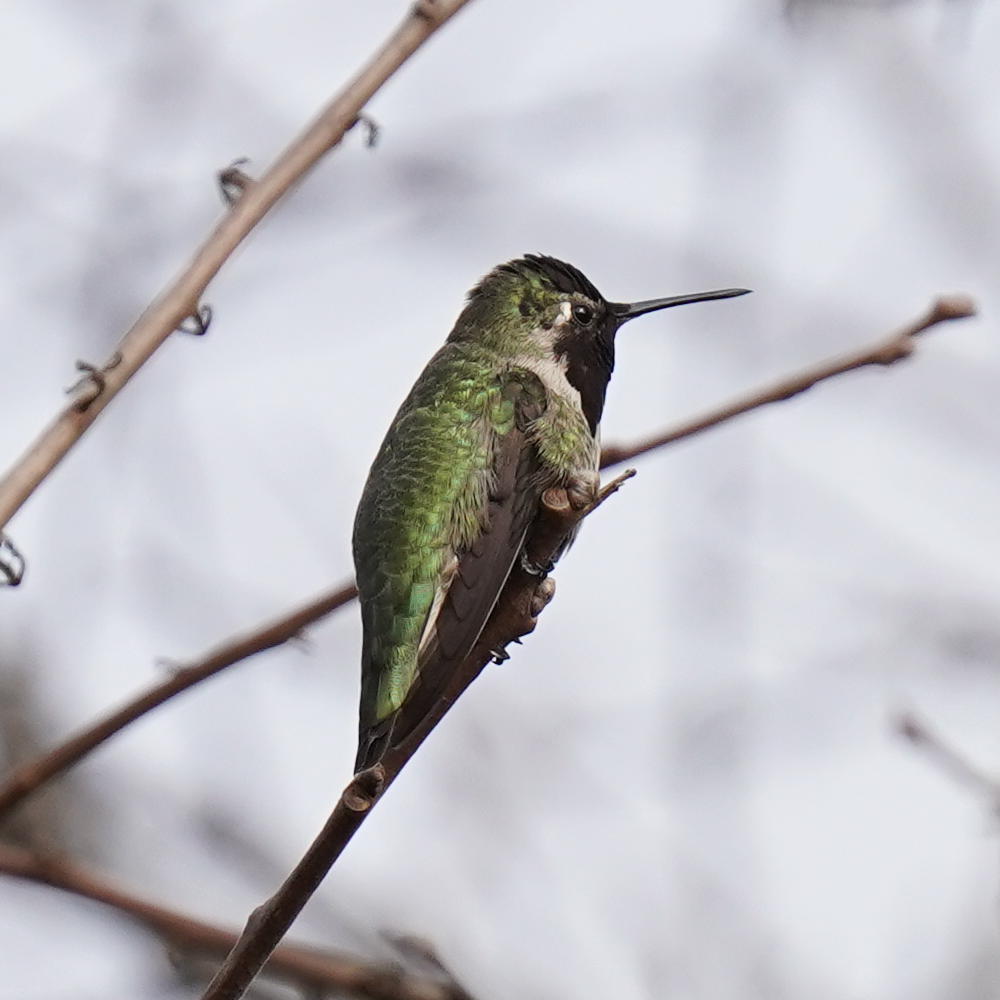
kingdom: Animalia
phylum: Chordata
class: Aves
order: Apodiformes
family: Trochilidae
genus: Calypte
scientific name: Calypte anna
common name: Anna's hummingbird
